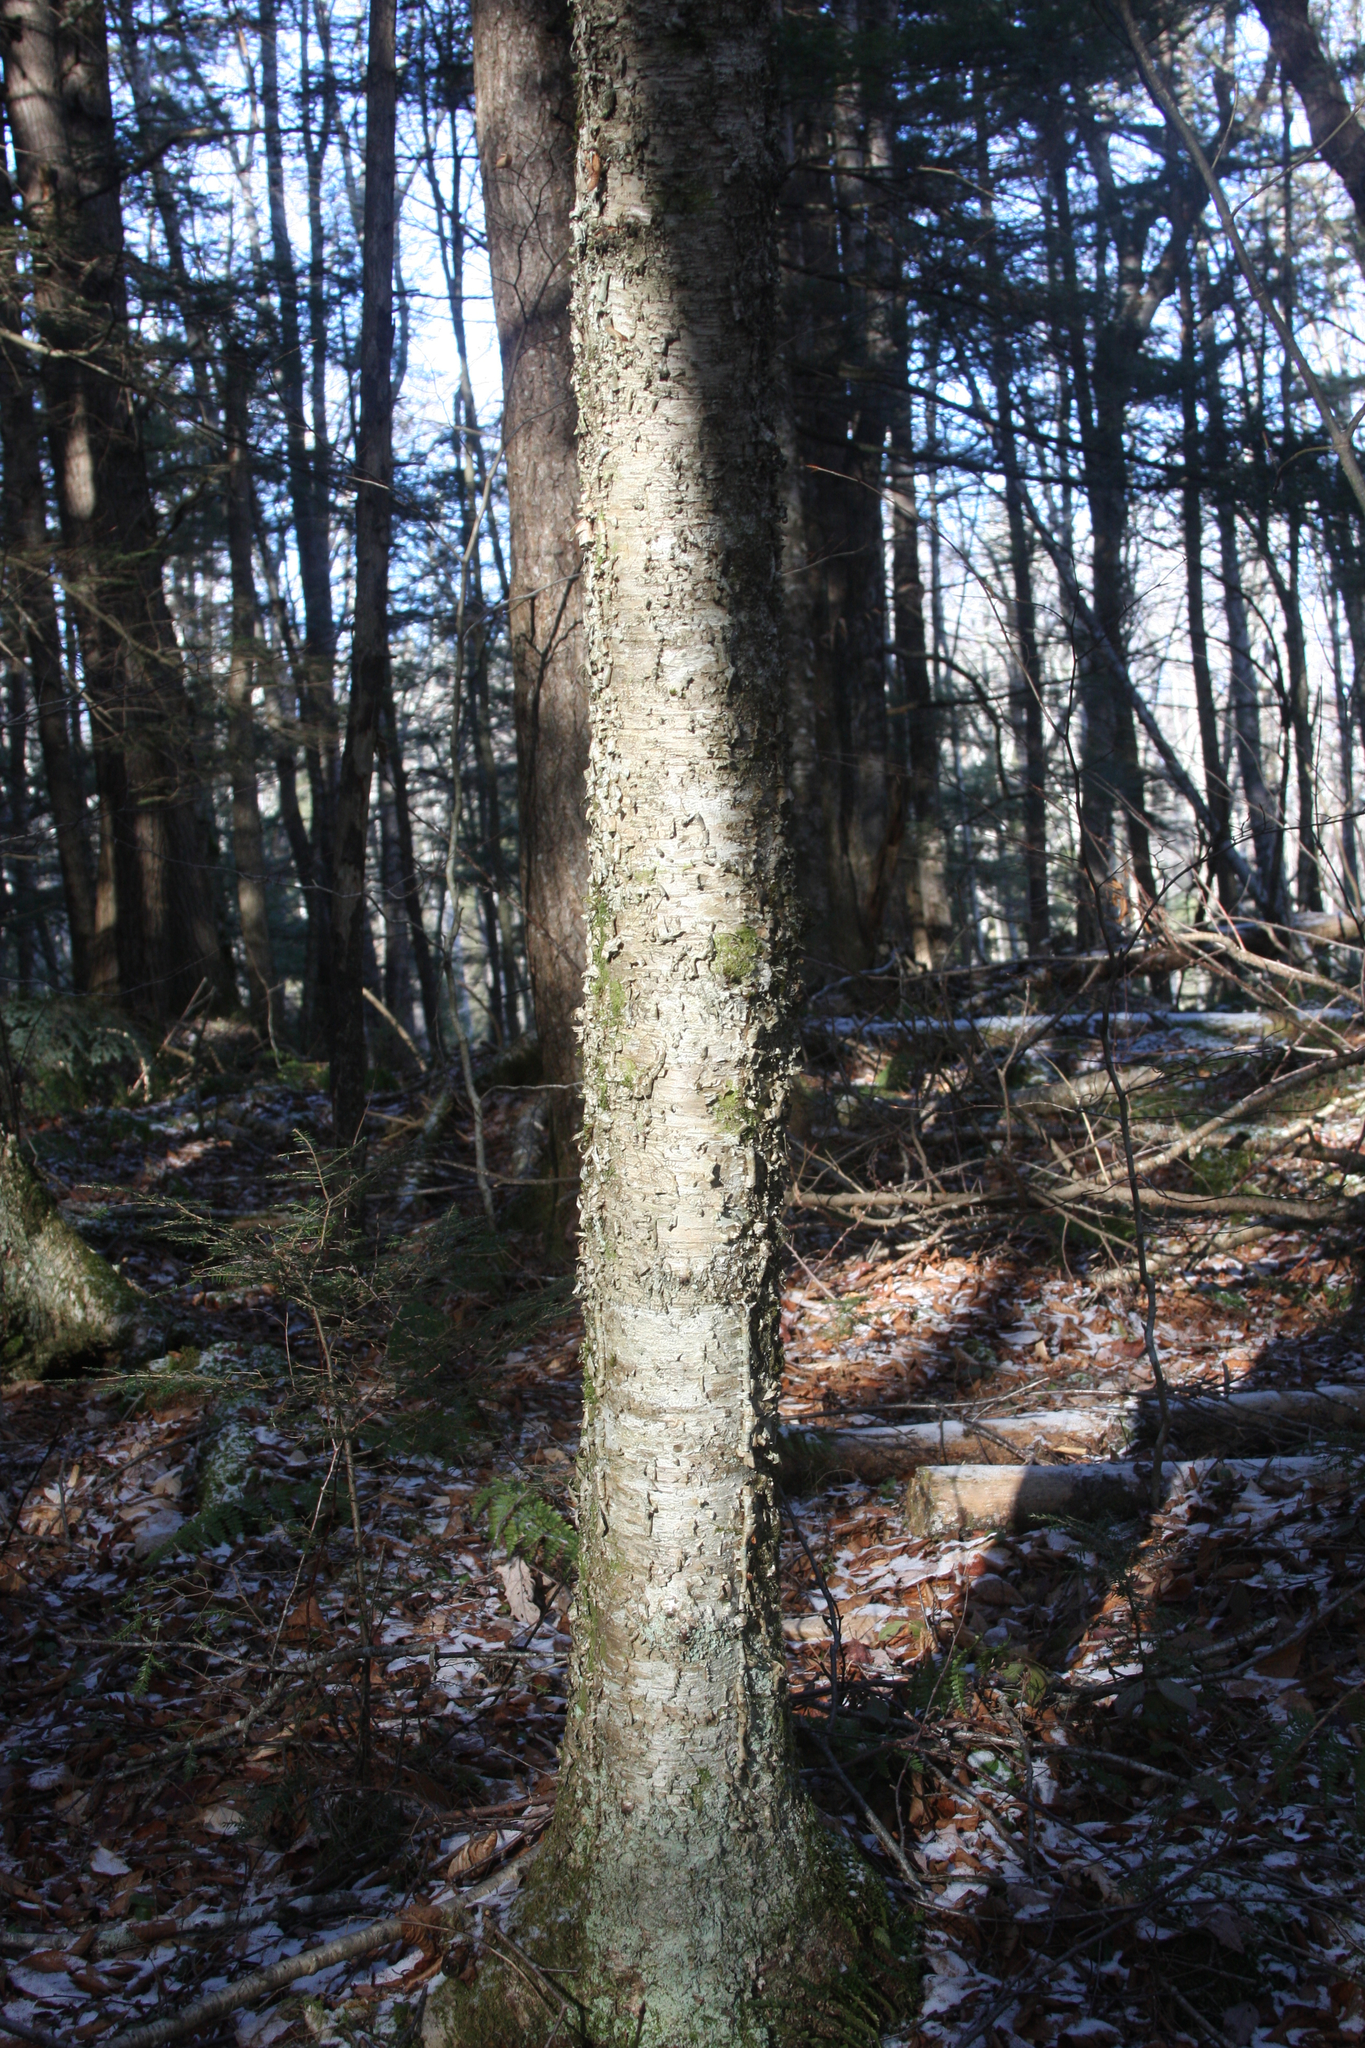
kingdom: Plantae
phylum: Tracheophyta
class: Magnoliopsida
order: Fagales
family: Betulaceae
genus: Betula
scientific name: Betula alleghaniensis
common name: Yellow birch
